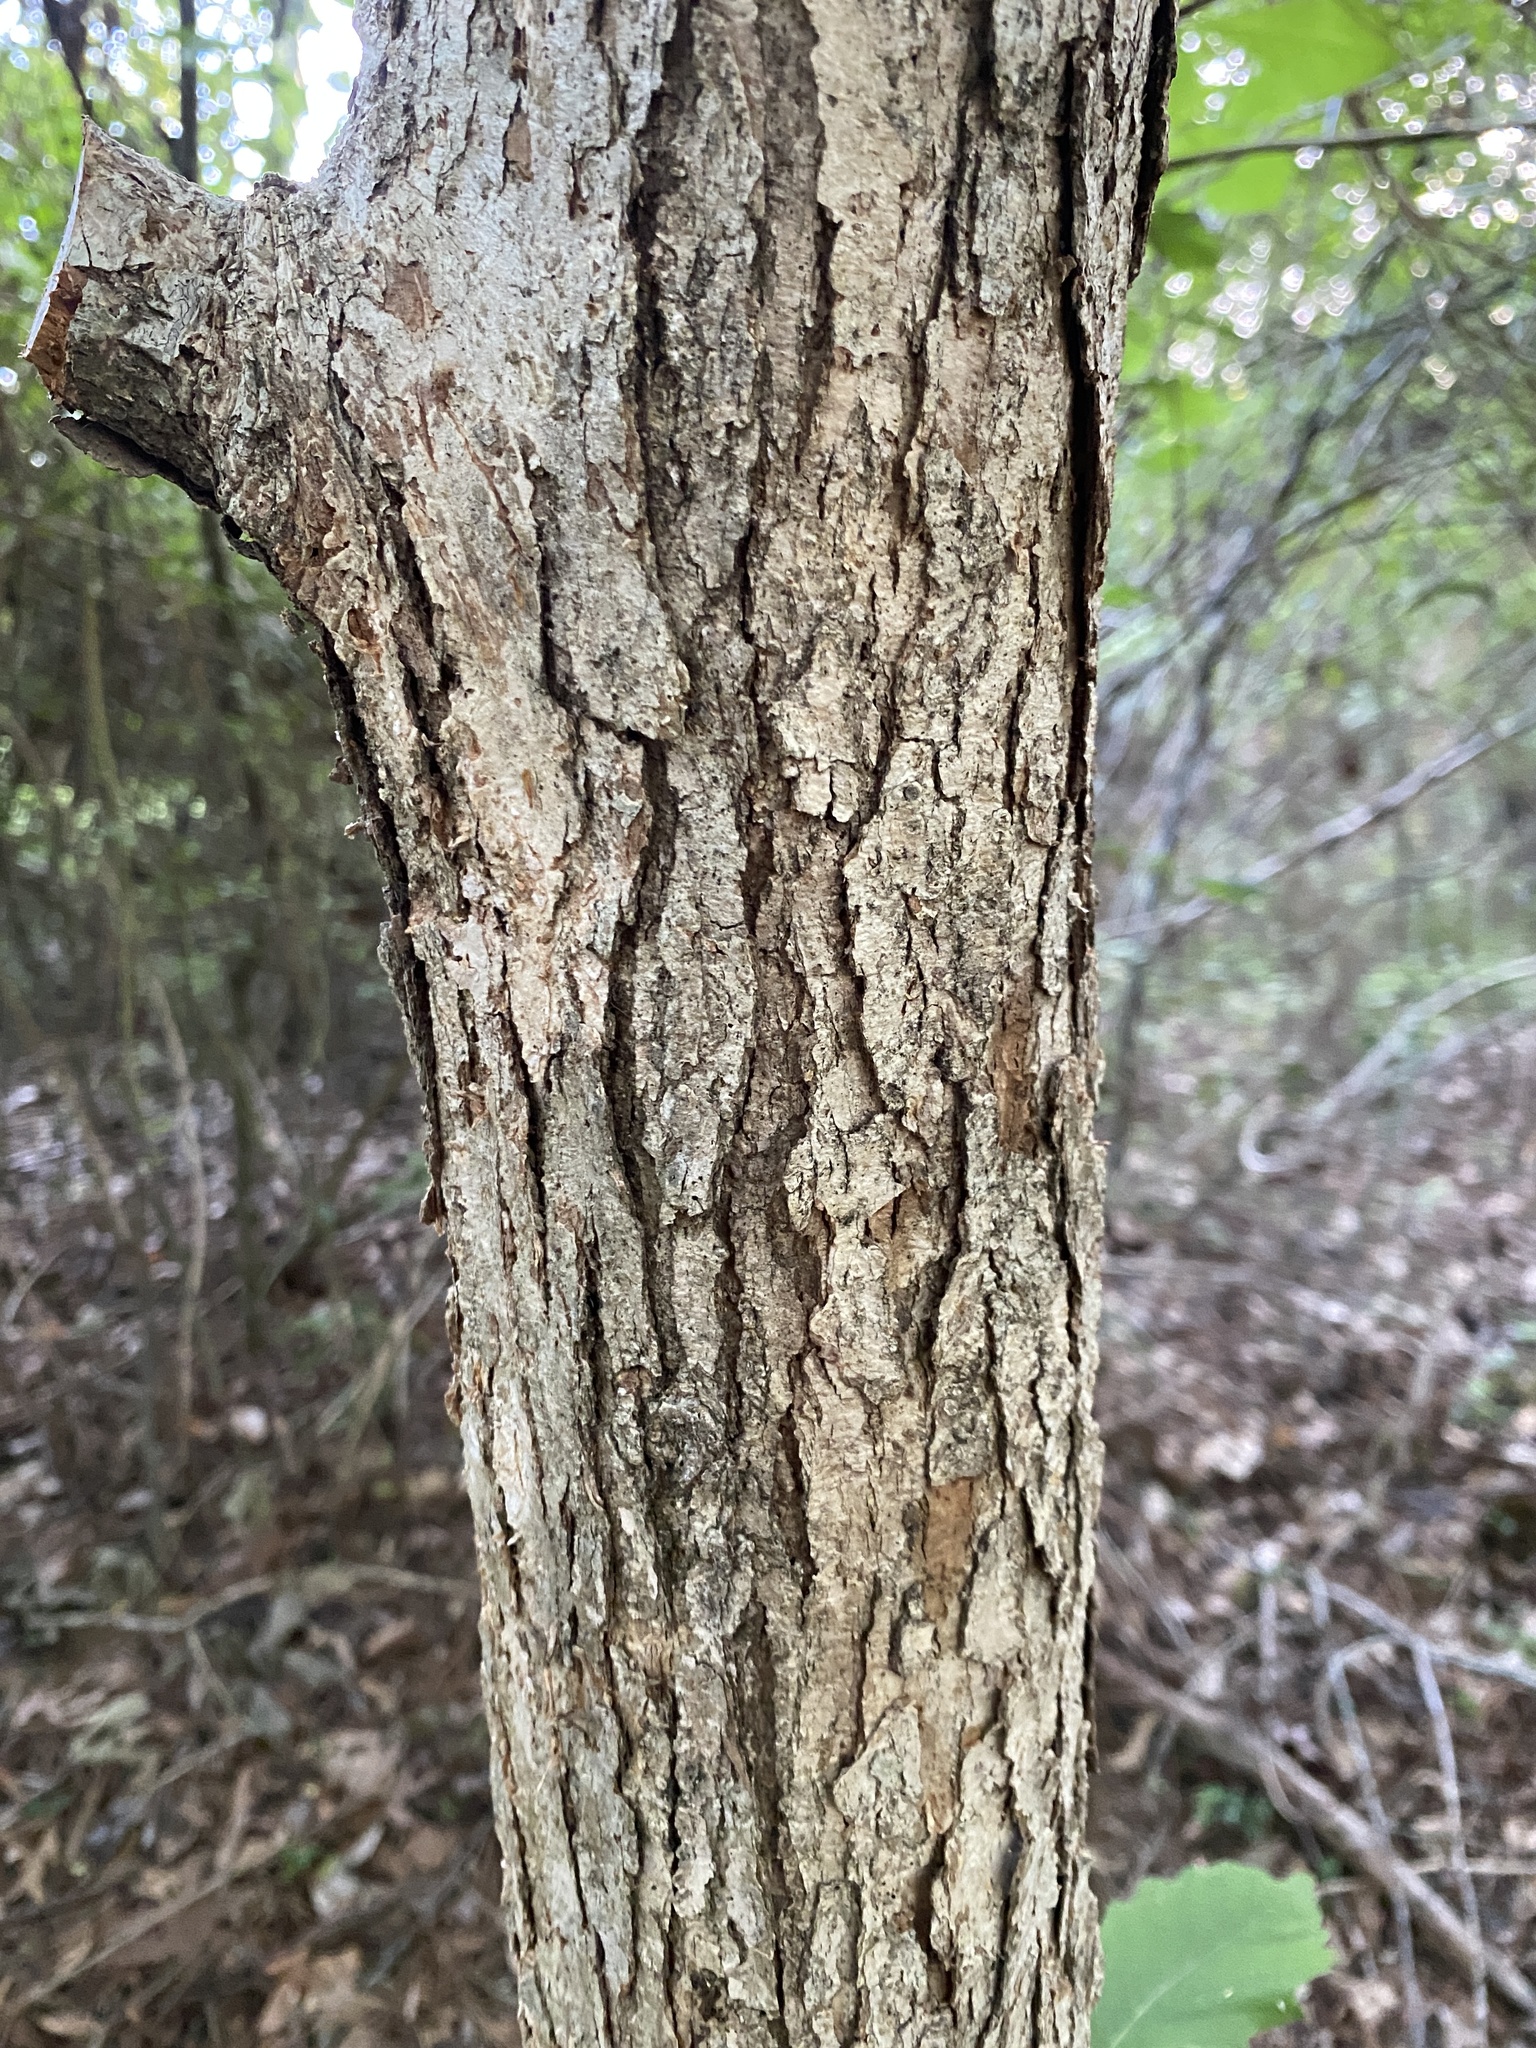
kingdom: Plantae
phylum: Tracheophyta
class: Magnoliopsida
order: Fagales
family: Fagaceae
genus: Quercus
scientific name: Quercus michauxii
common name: Swamp chestnut oak
